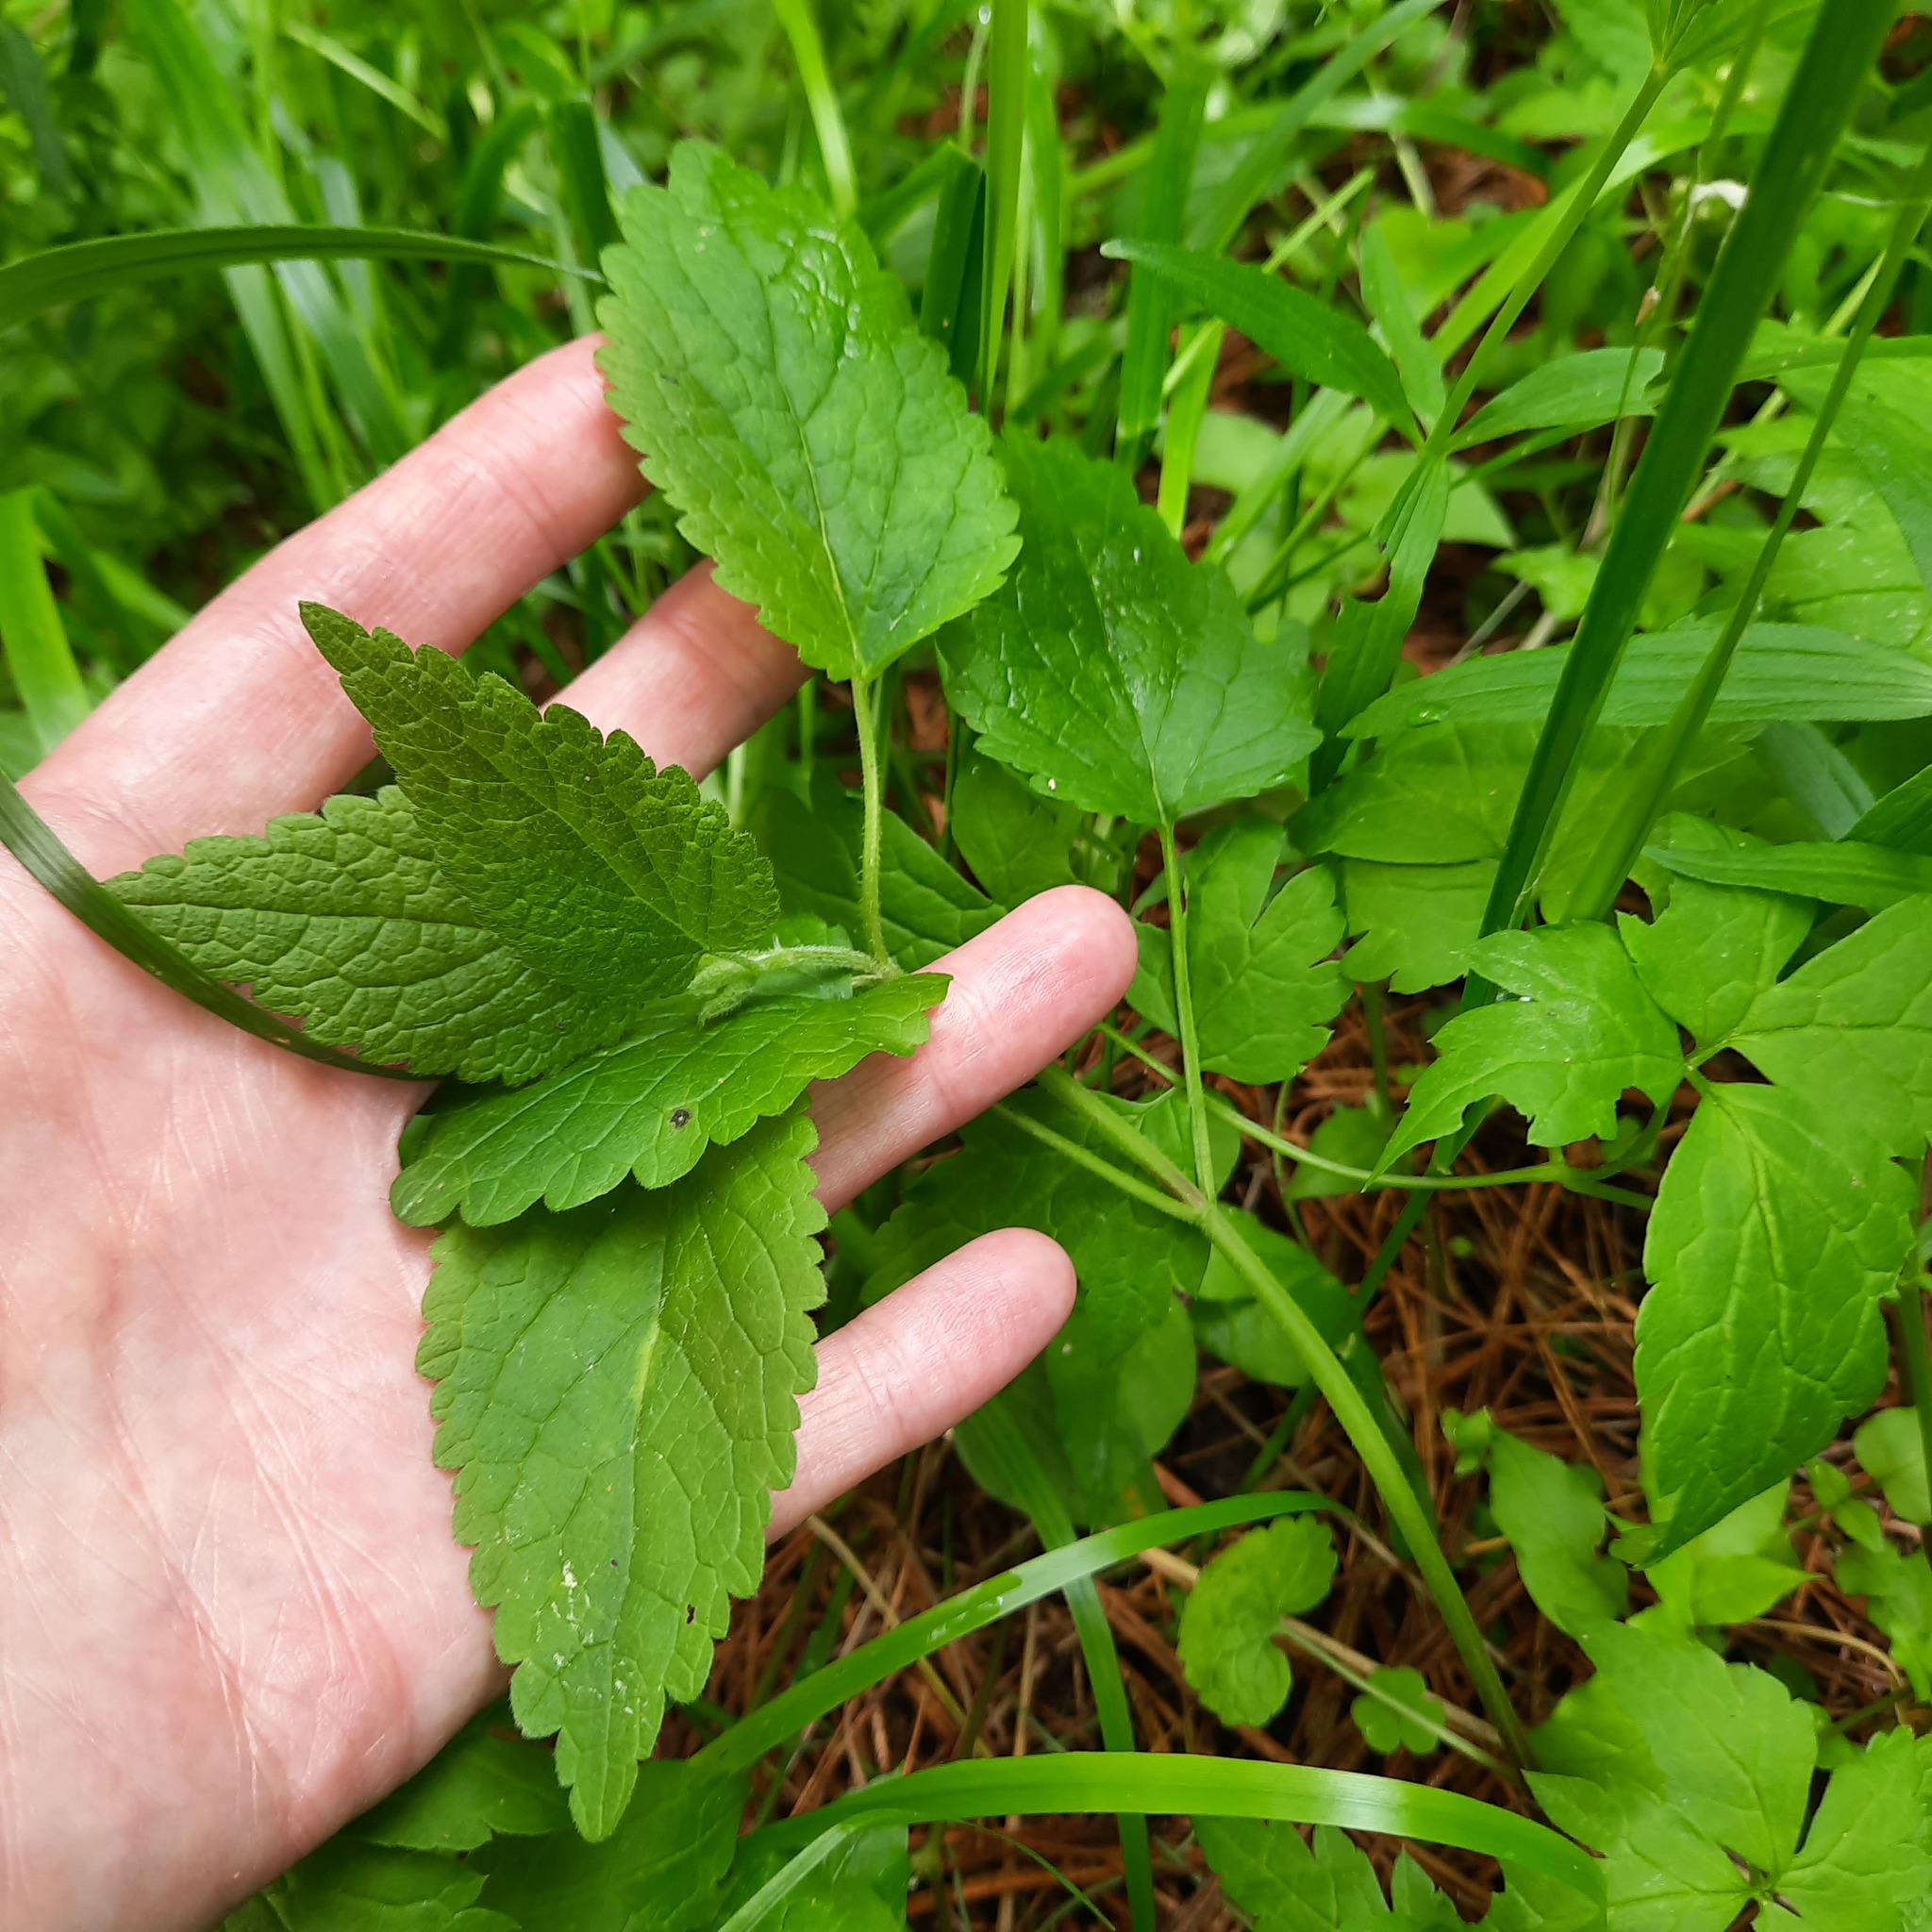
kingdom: Plantae
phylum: Tracheophyta
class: Magnoliopsida
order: Lamiales
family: Lamiaceae
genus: Lamium
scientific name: Lamium album
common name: White dead-nettle
